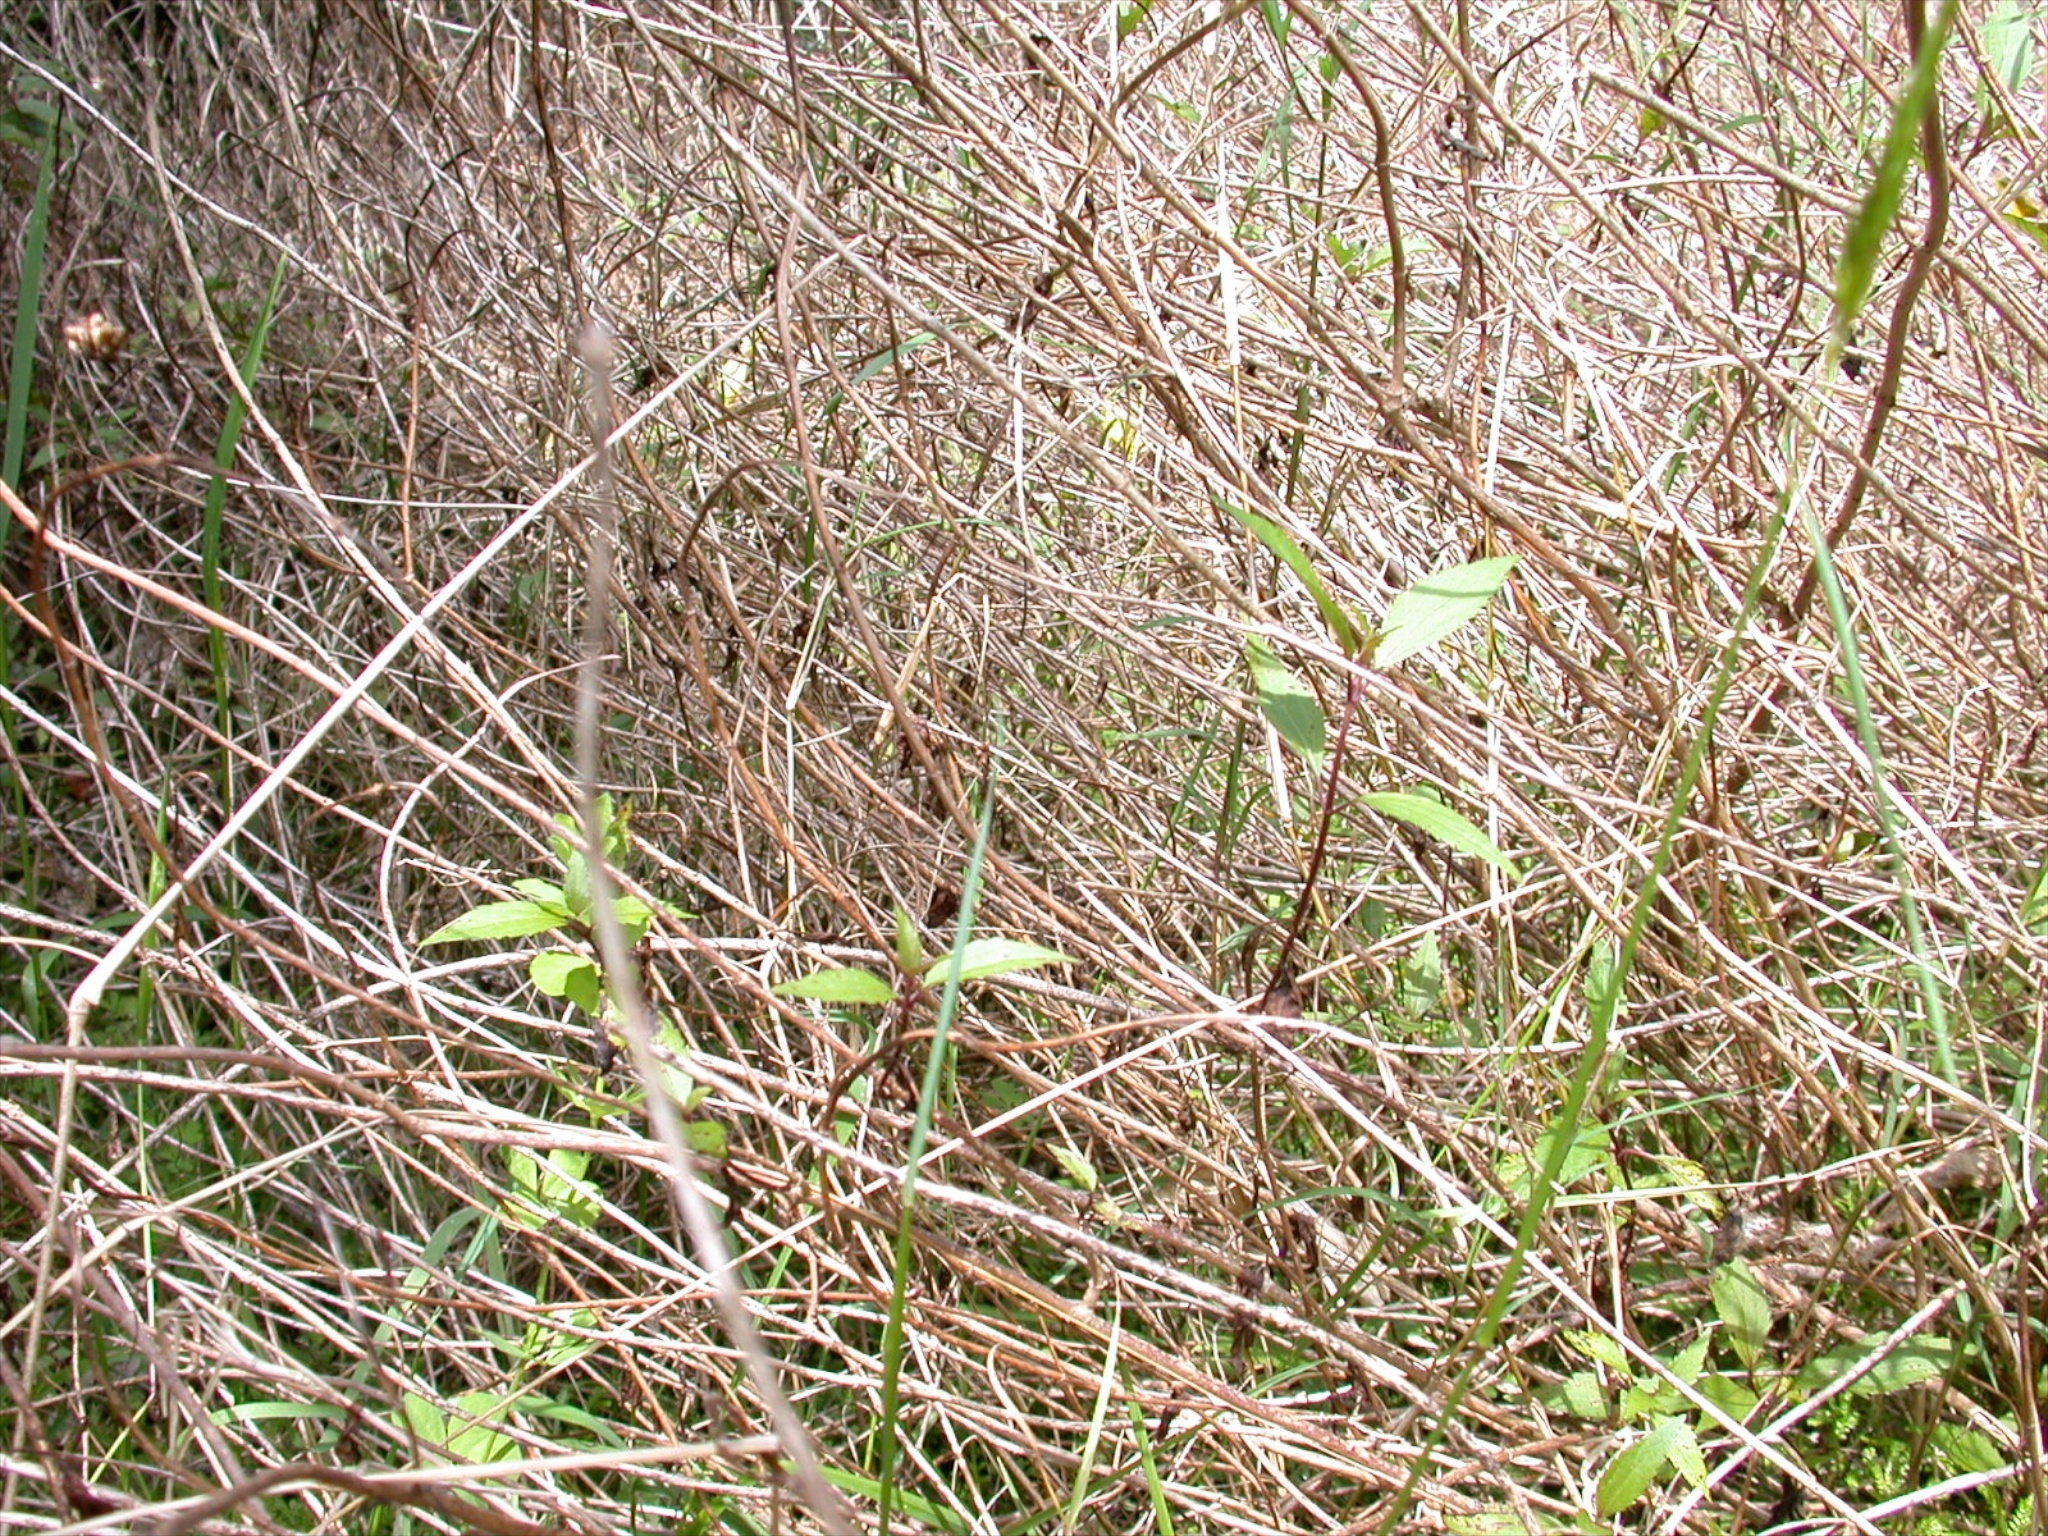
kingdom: Plantae
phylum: Tracheophyta
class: Magnoliopsida
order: Asterales
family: Asteraceae
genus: Ageratina
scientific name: Ageratina riparia
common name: Creeping croftonweed
